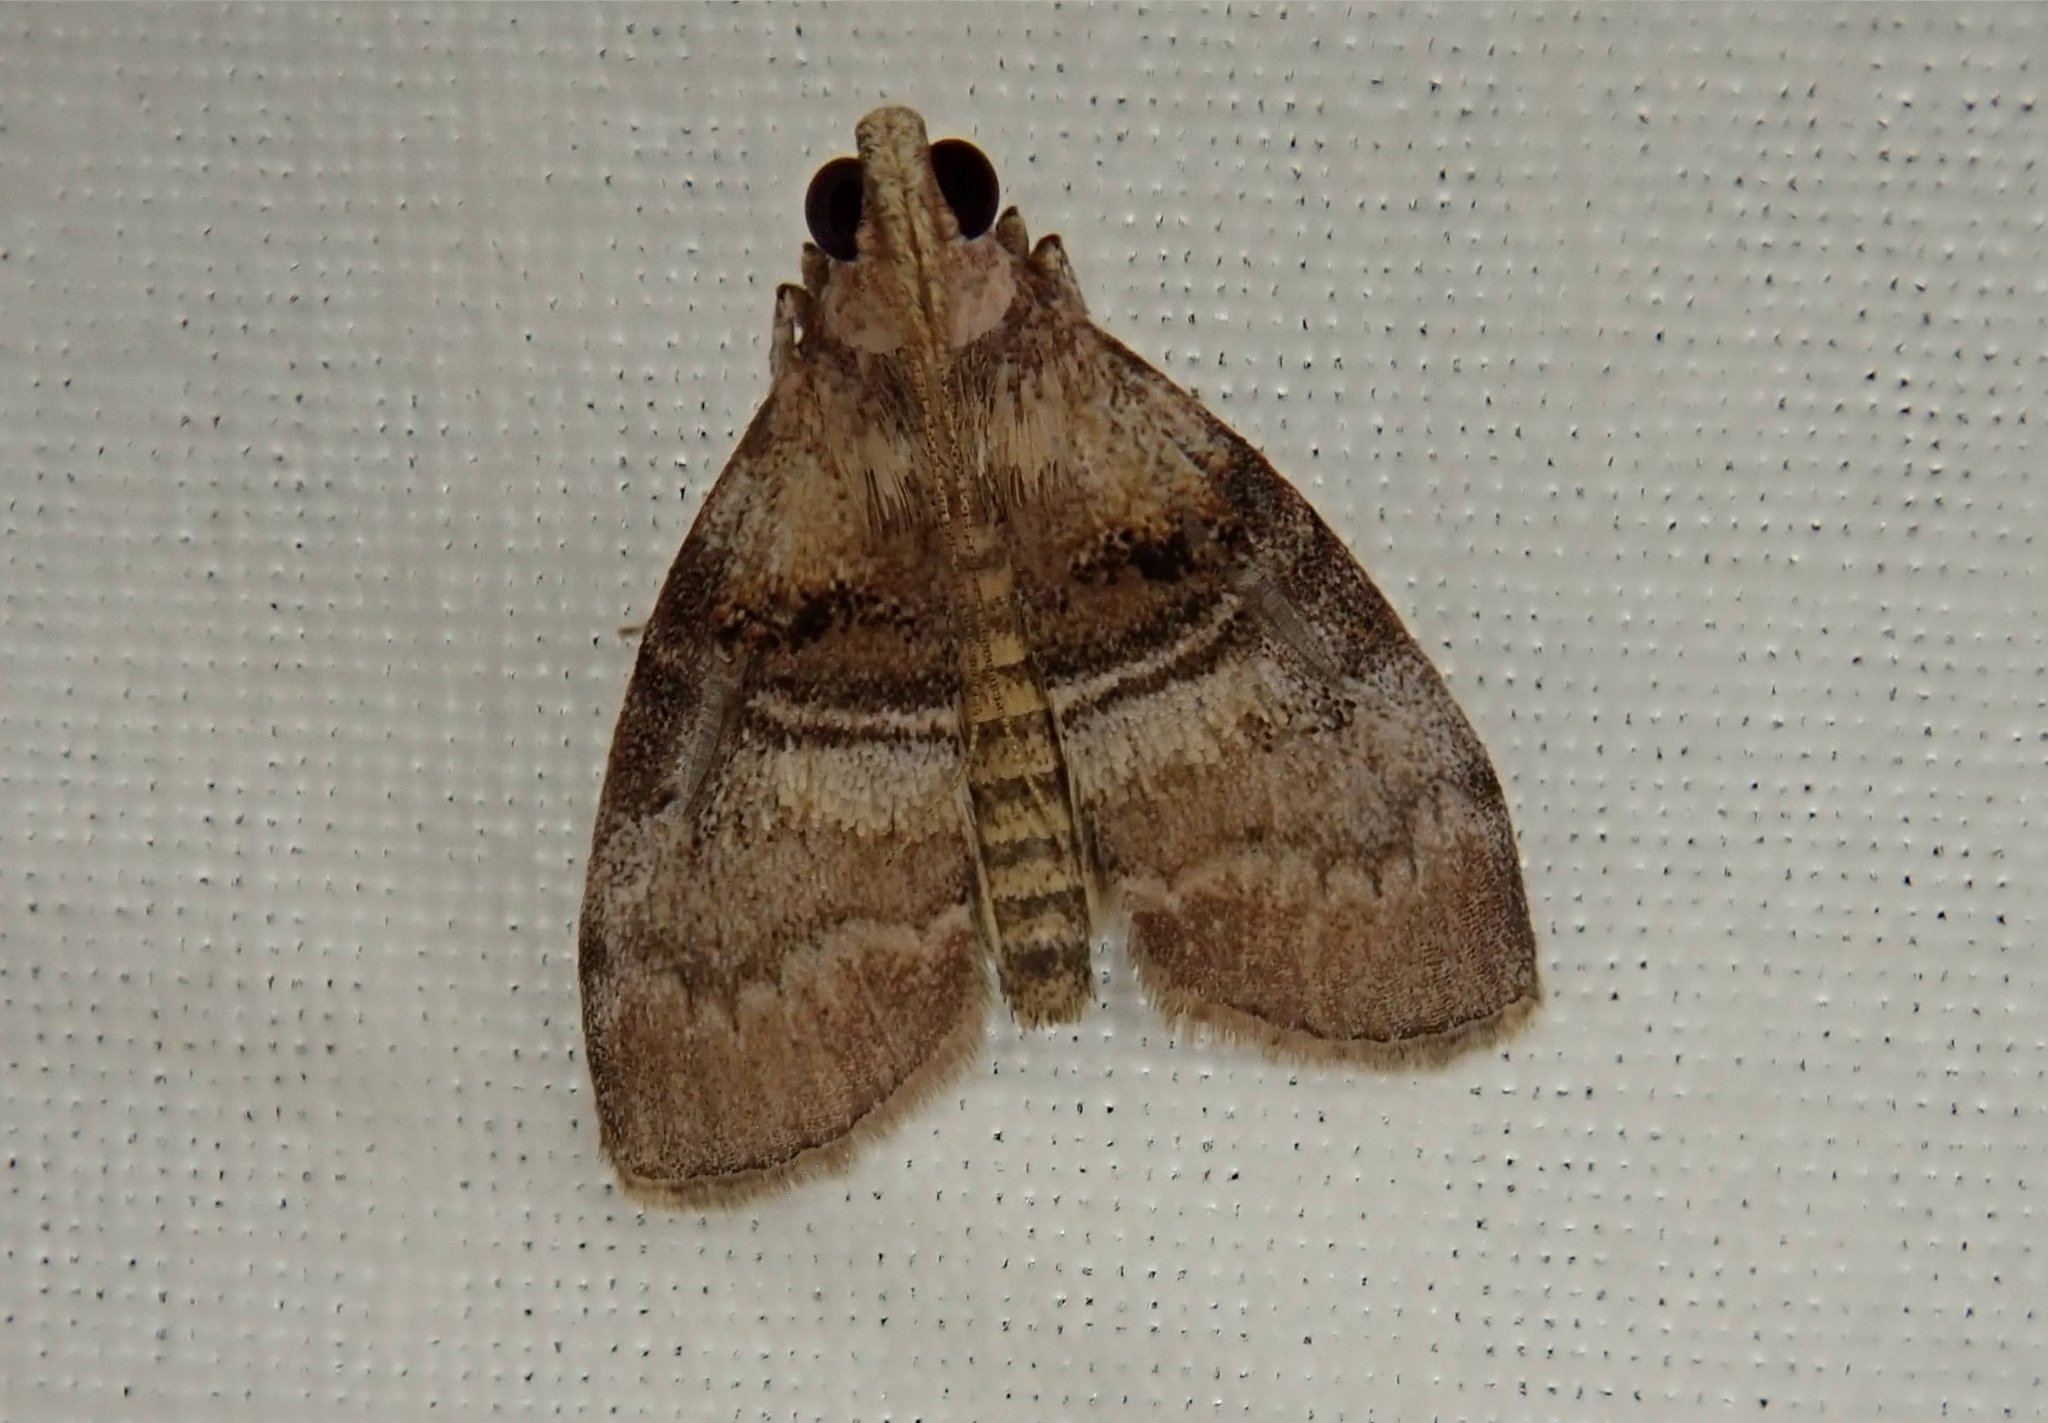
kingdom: Animalia
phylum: Arthropoda
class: Insecta
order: Lepidoptera
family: Pyralidae
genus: Pococera
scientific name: Pococera militella
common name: Sycamore webworm moth
